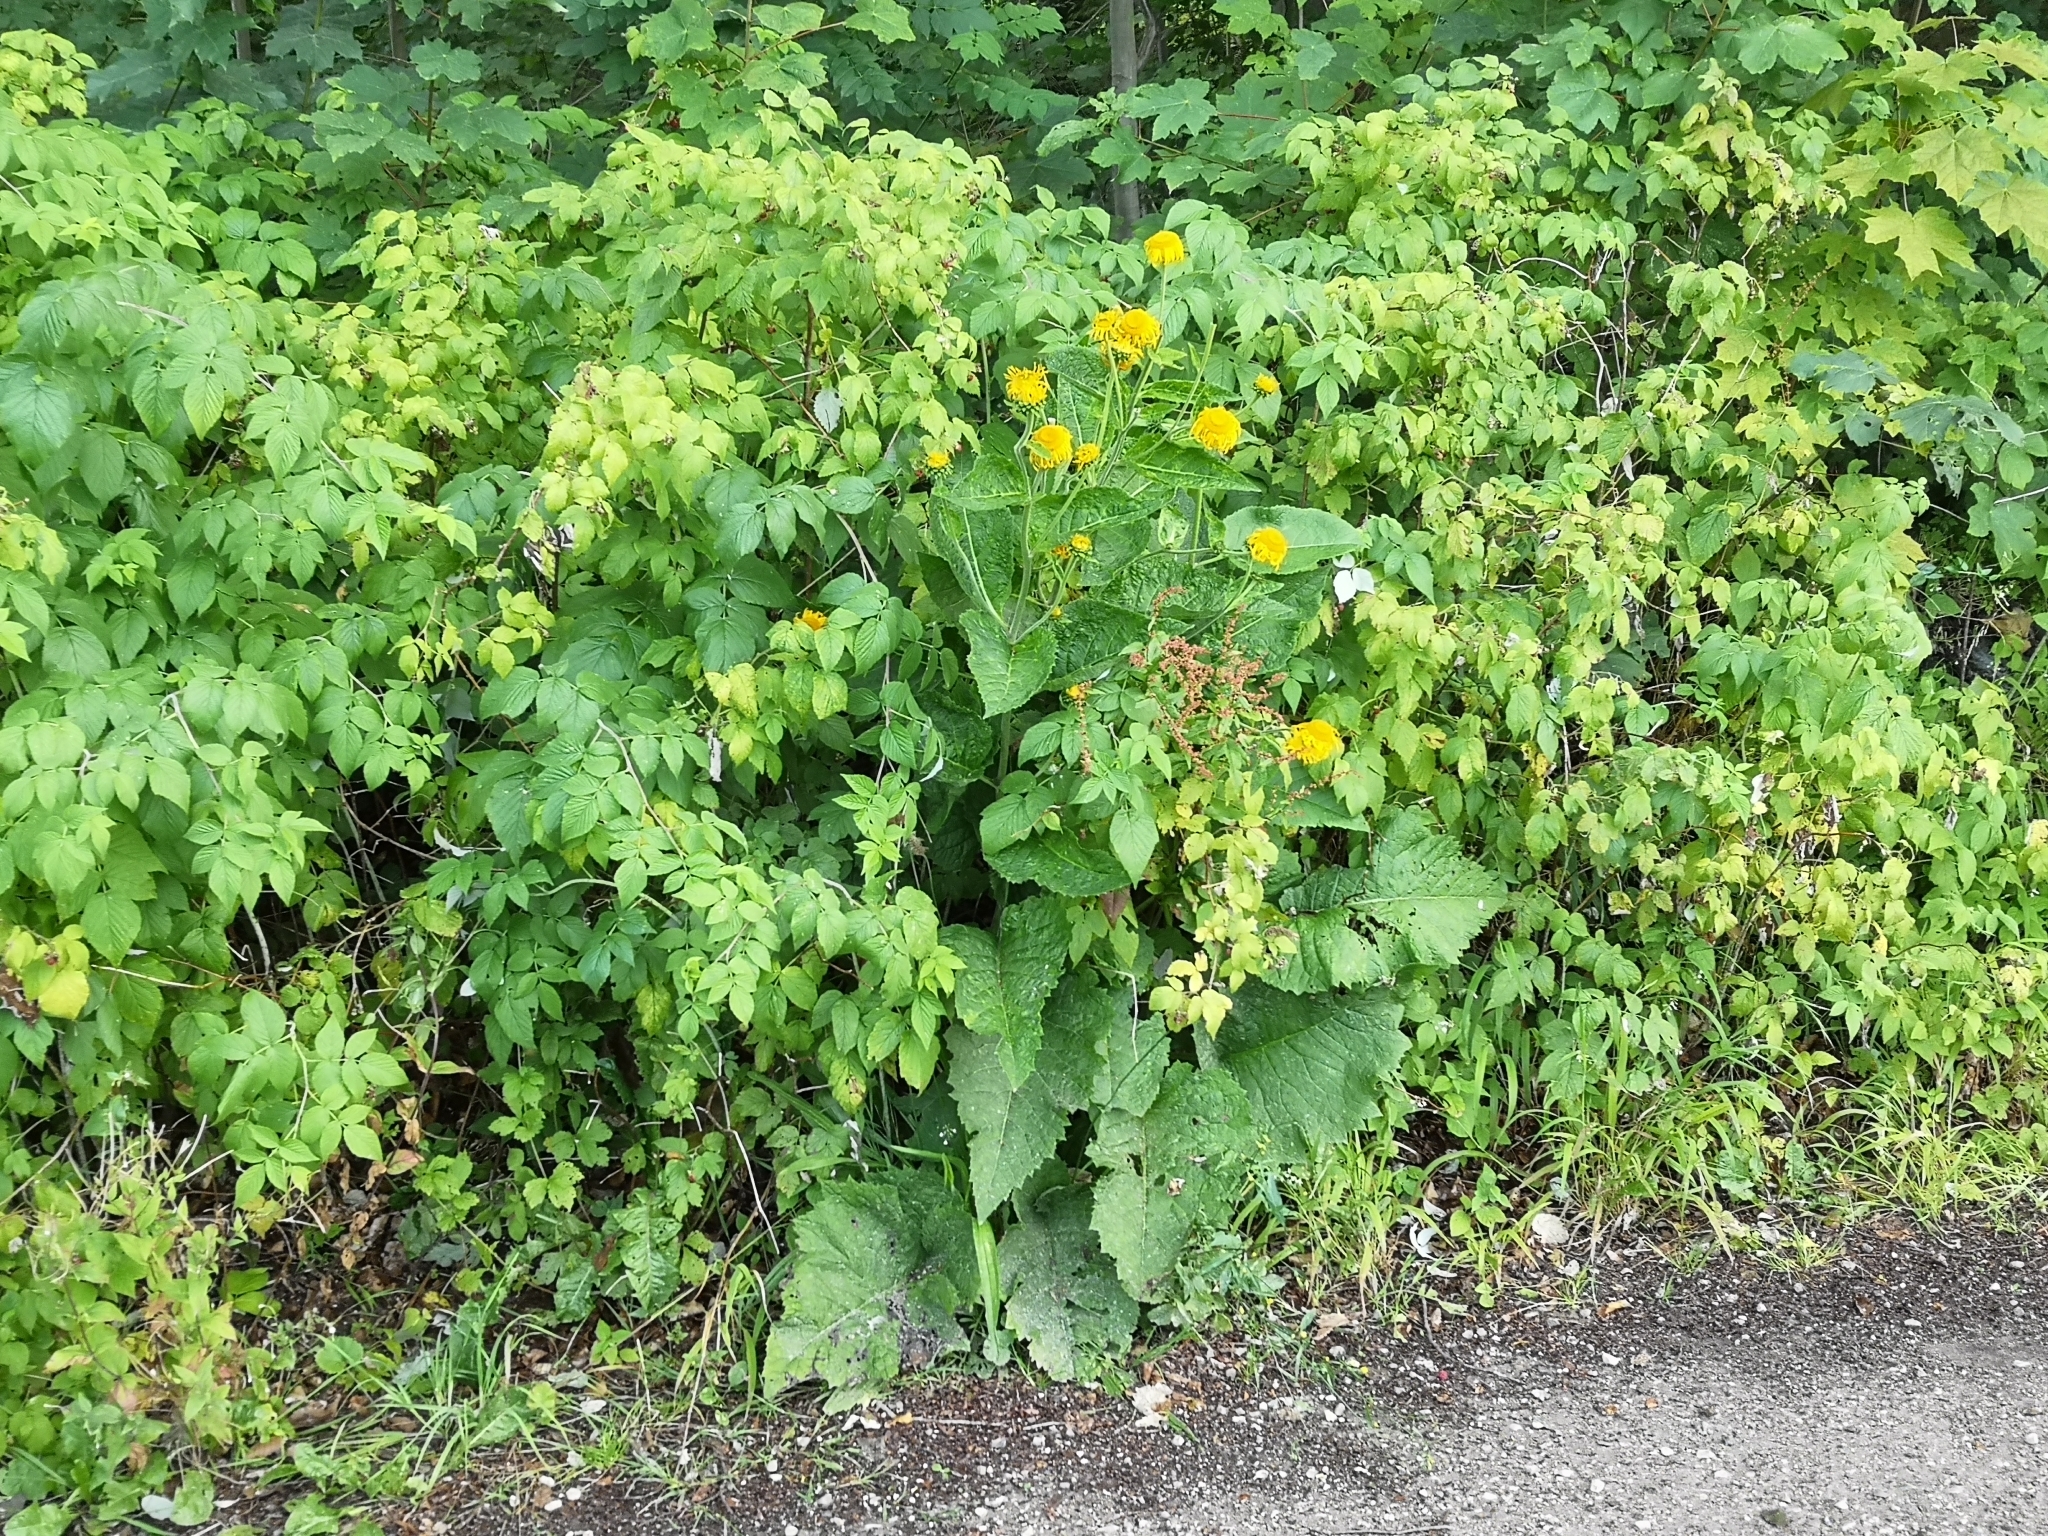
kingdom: Plantae
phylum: Tracheophyta
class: Magnoliopsida
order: Asterales
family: Asteraceae
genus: Telekia
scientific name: Telekia speciosa
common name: Yellow oxeye
